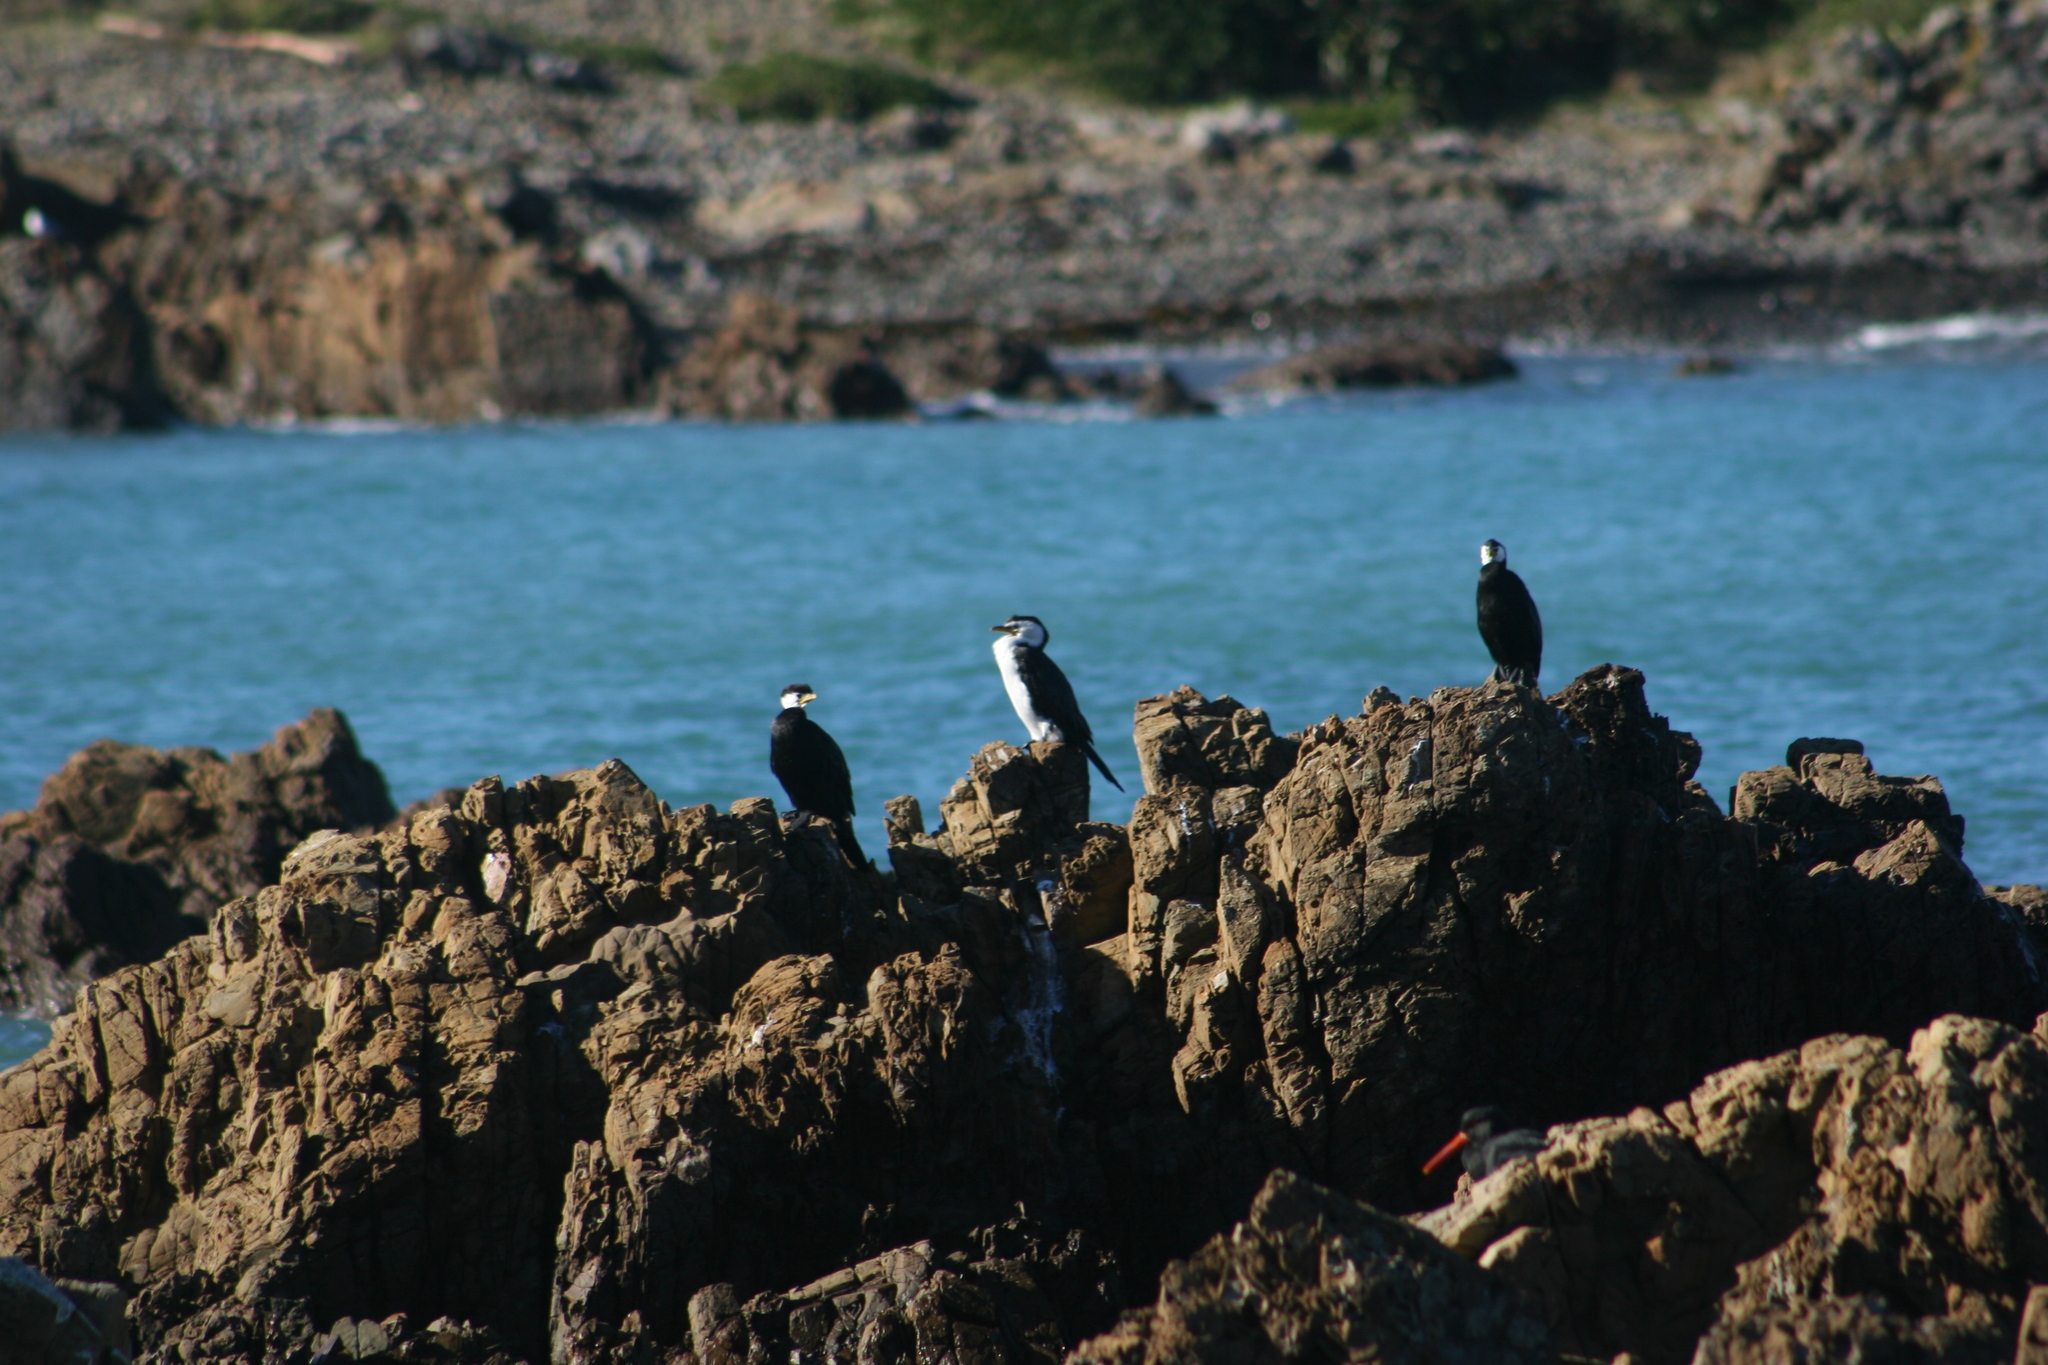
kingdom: Animalia
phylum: Chordata
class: Aves
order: Suliformes
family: Phalacrocoracidae
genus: Microcarbo
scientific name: Microcarbo melanoleucos
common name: Little pied cormorant
